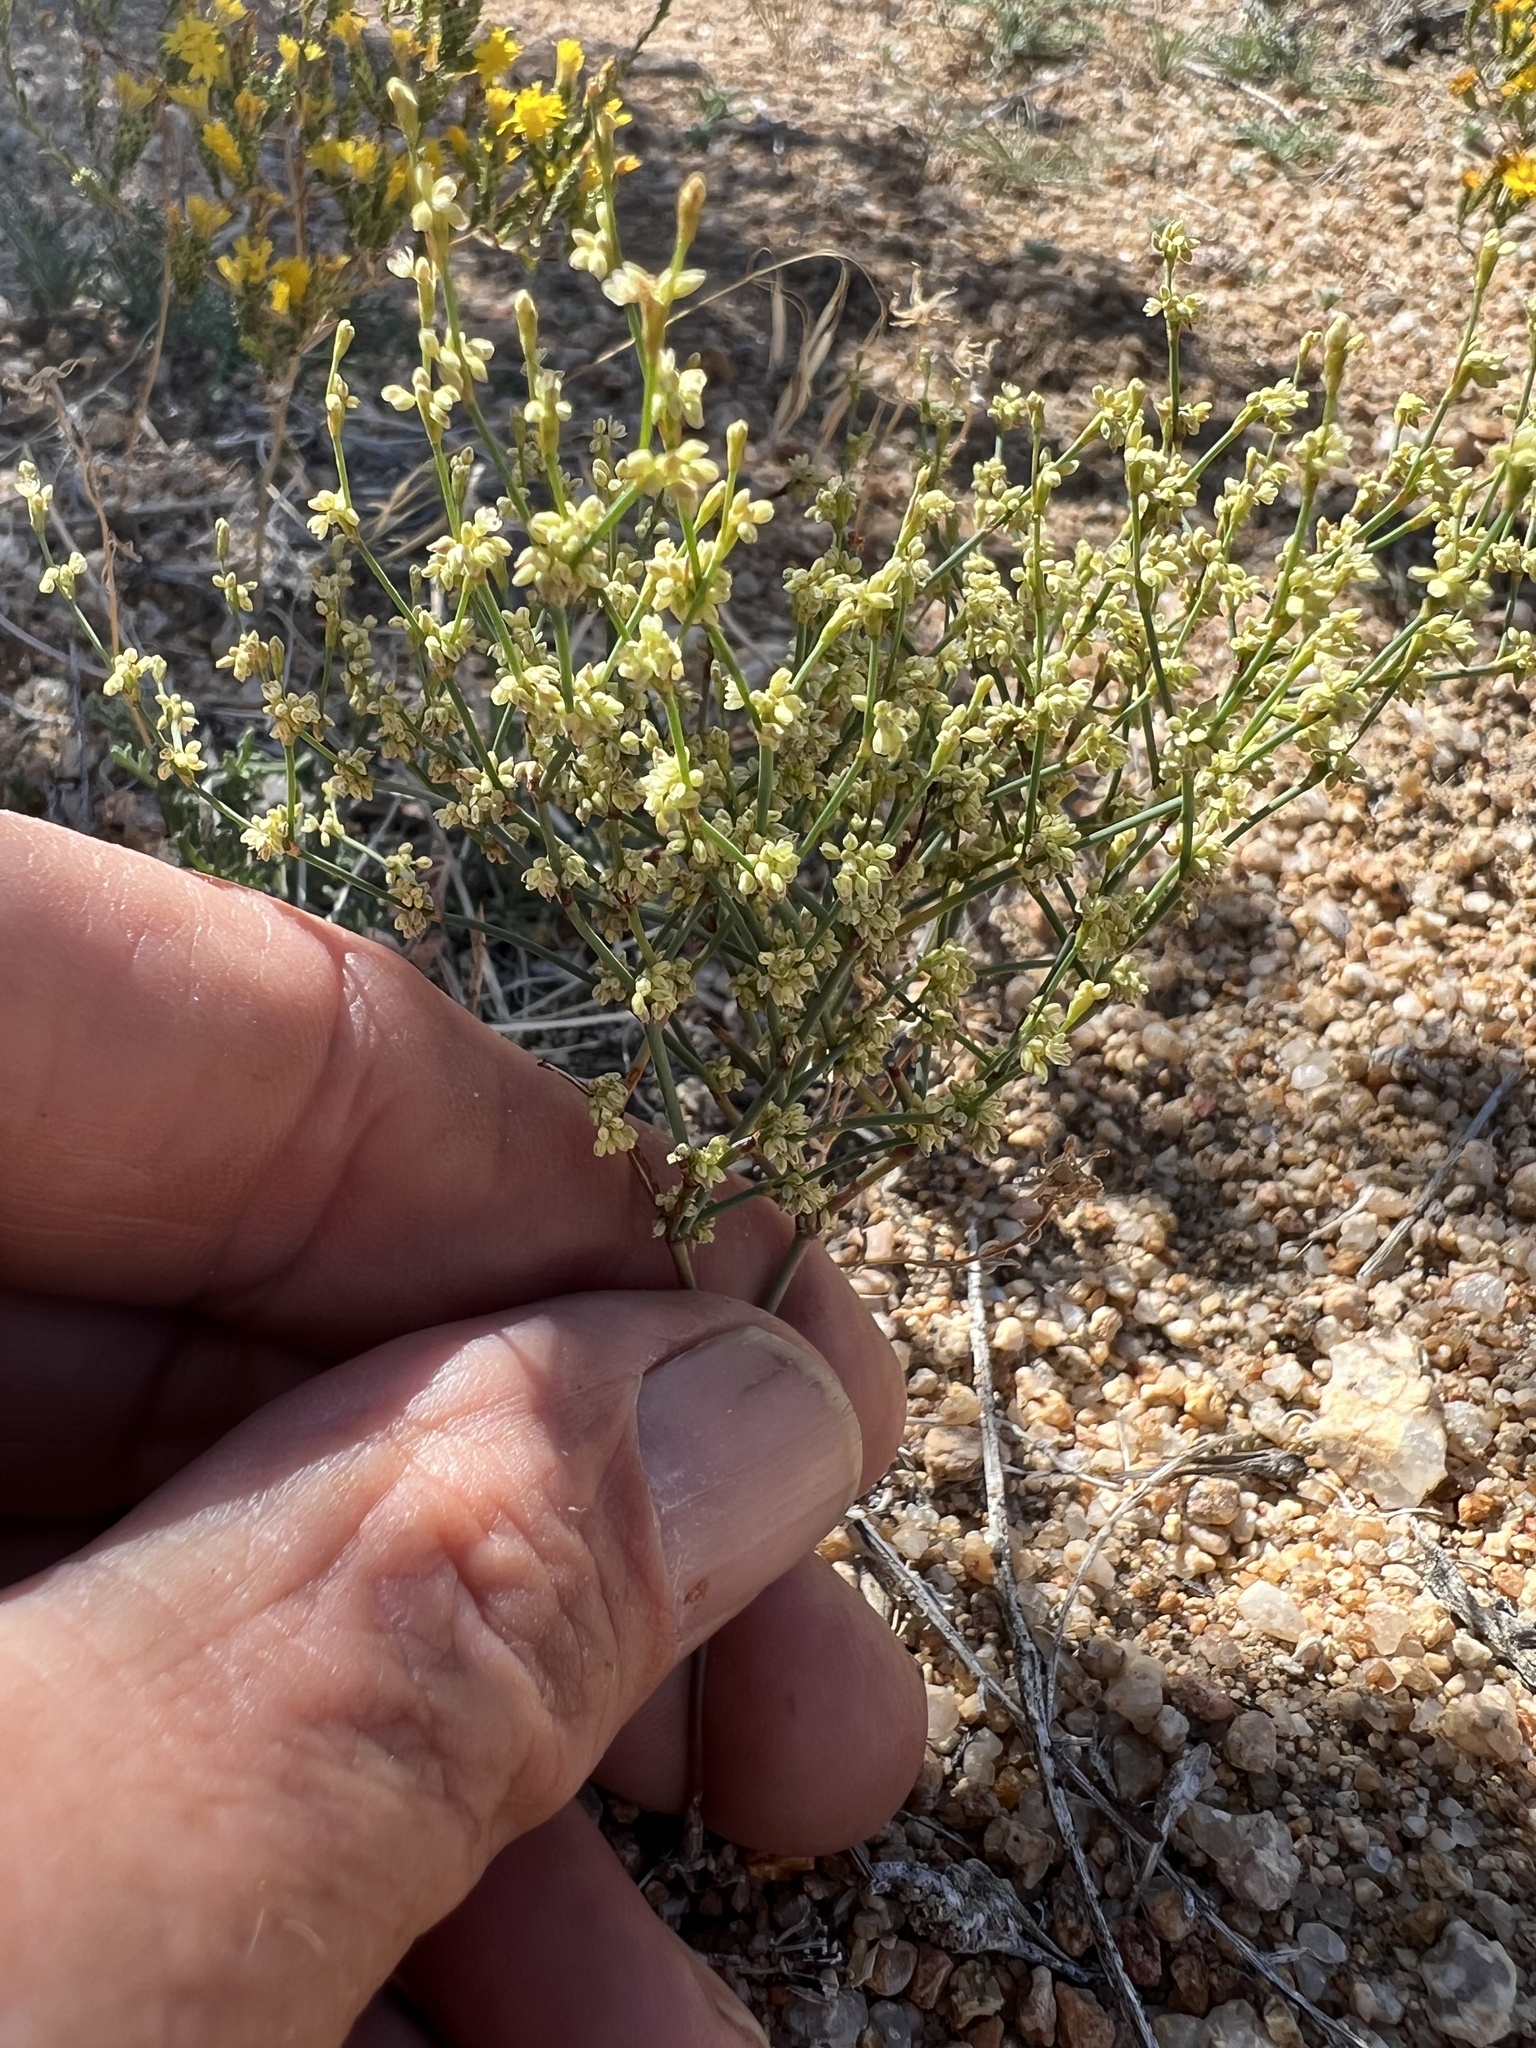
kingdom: Plantae
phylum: Tracheophyta
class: Magnoliopsida
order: Caryophyllales
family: Polygonaceae
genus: Eriogonum
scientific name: Eriogonum brachyanthum
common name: Short-flower wild buckwheat
